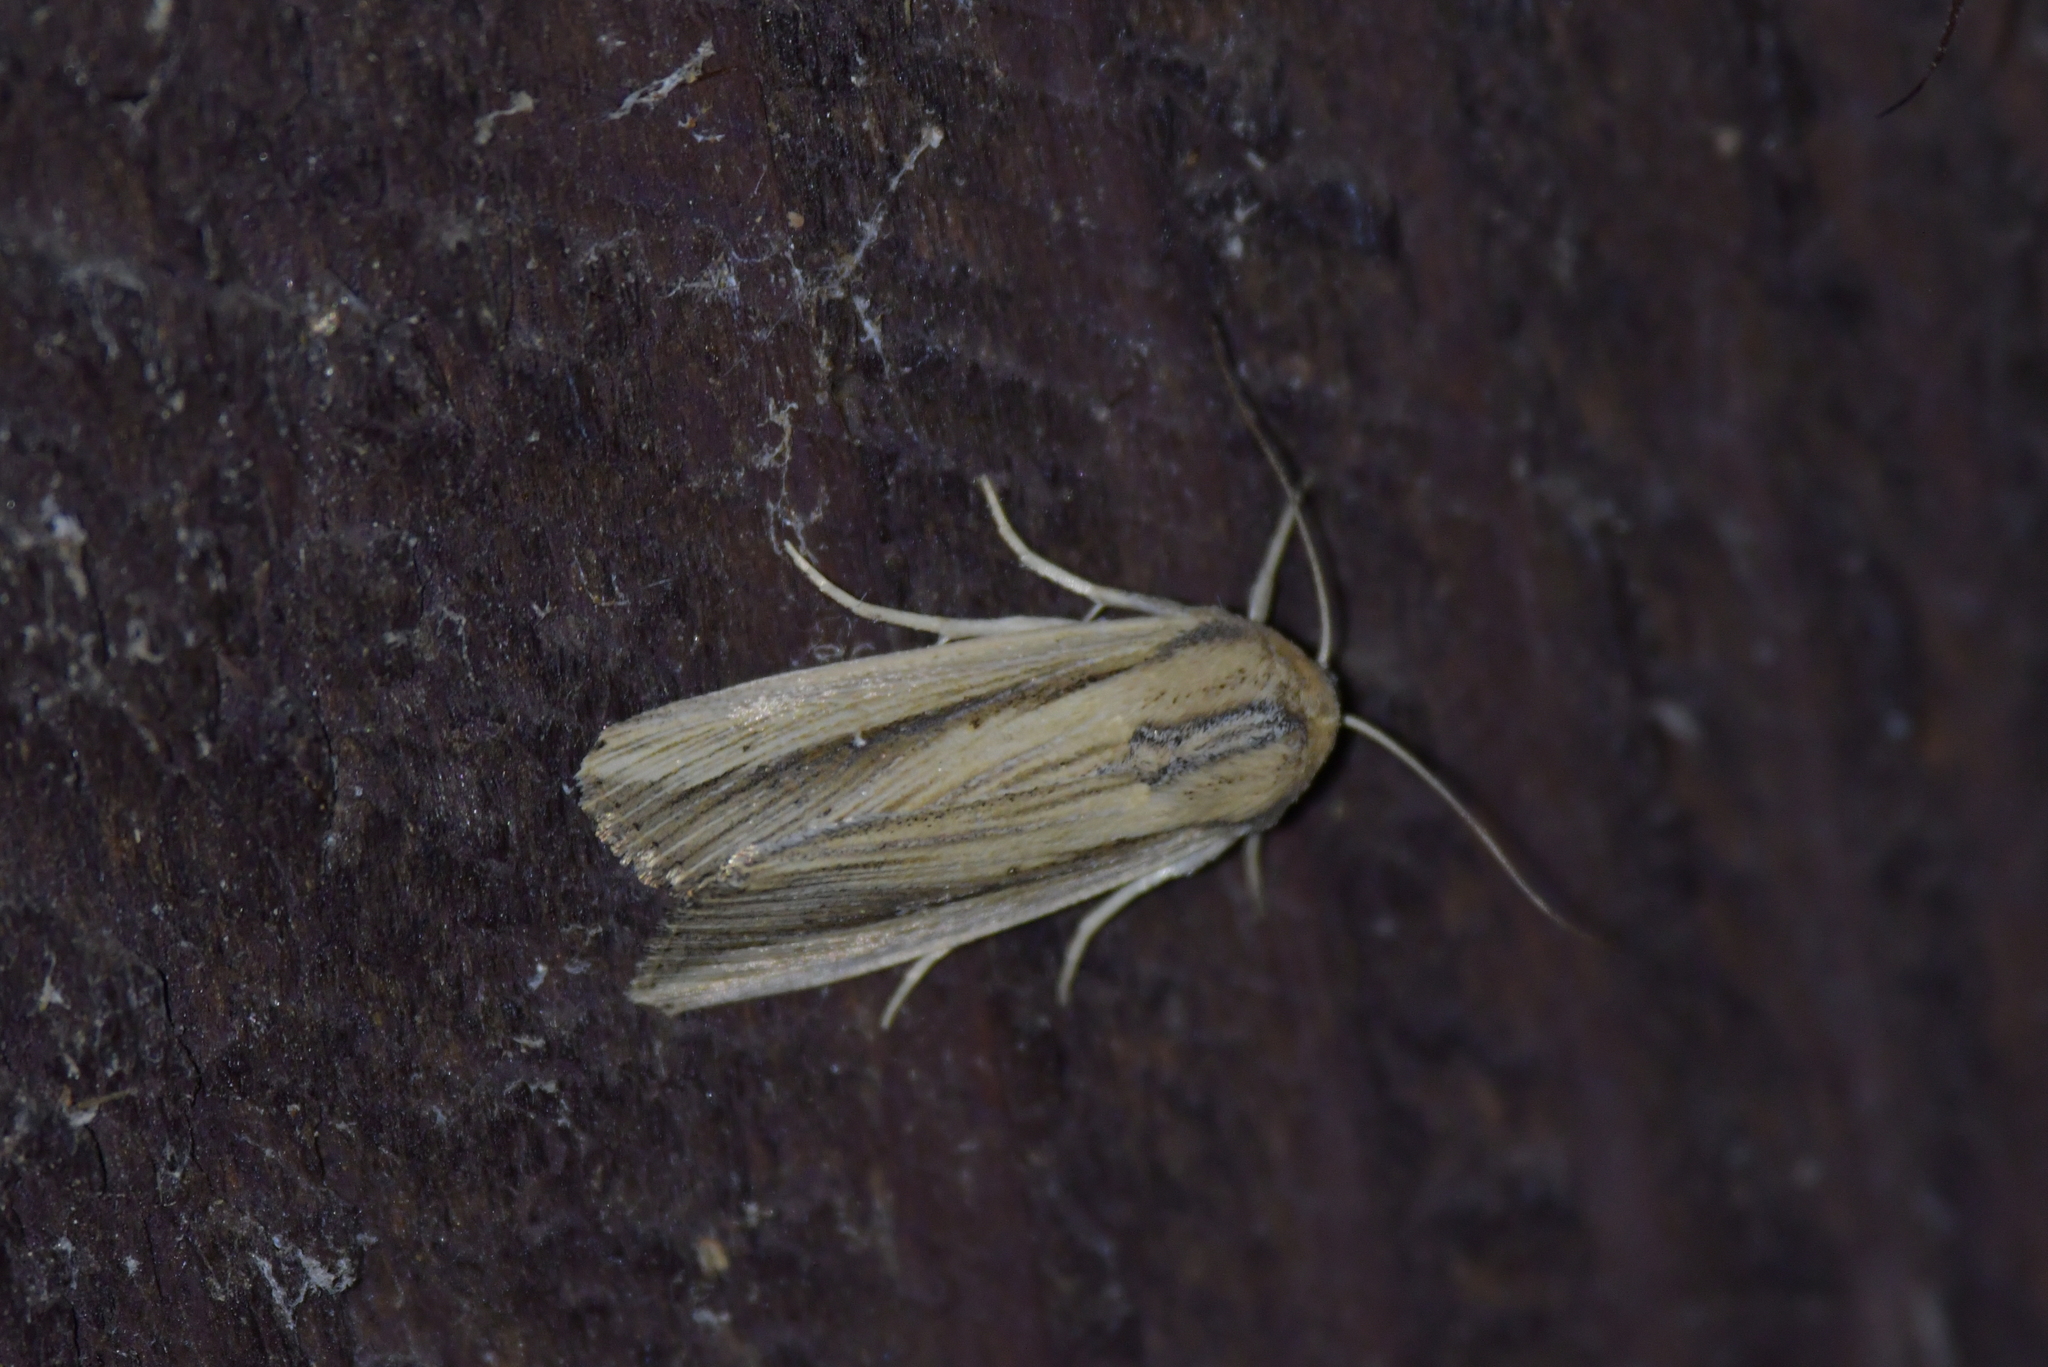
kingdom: Animalia
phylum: Arthropoda
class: Insecta
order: Lepidoptera
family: Noctuidae
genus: Leucania
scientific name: Leucania stenographa
